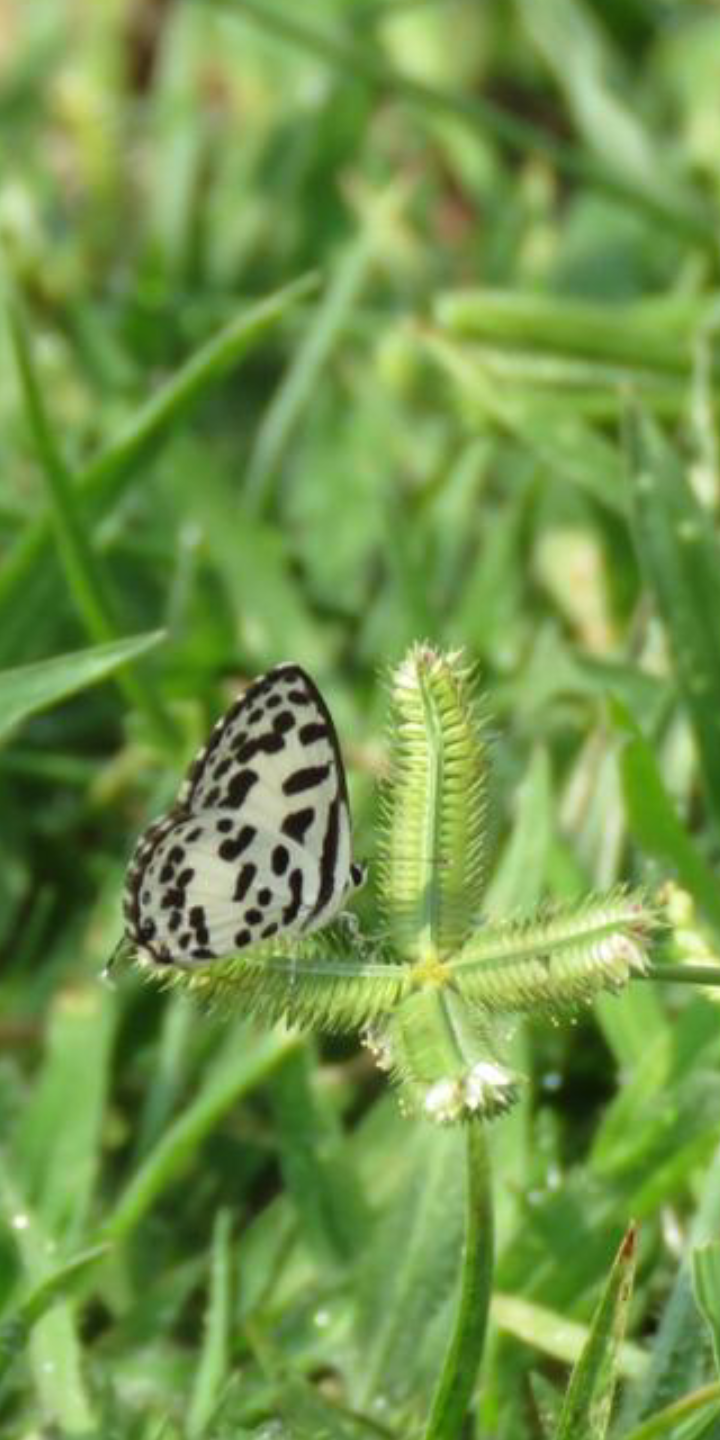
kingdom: Animalia
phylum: Arthropoda
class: Insecta
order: Lepidoptera
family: Lycaenidae
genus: Castalius
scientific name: Castalius rosimon
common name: Common pierrot
